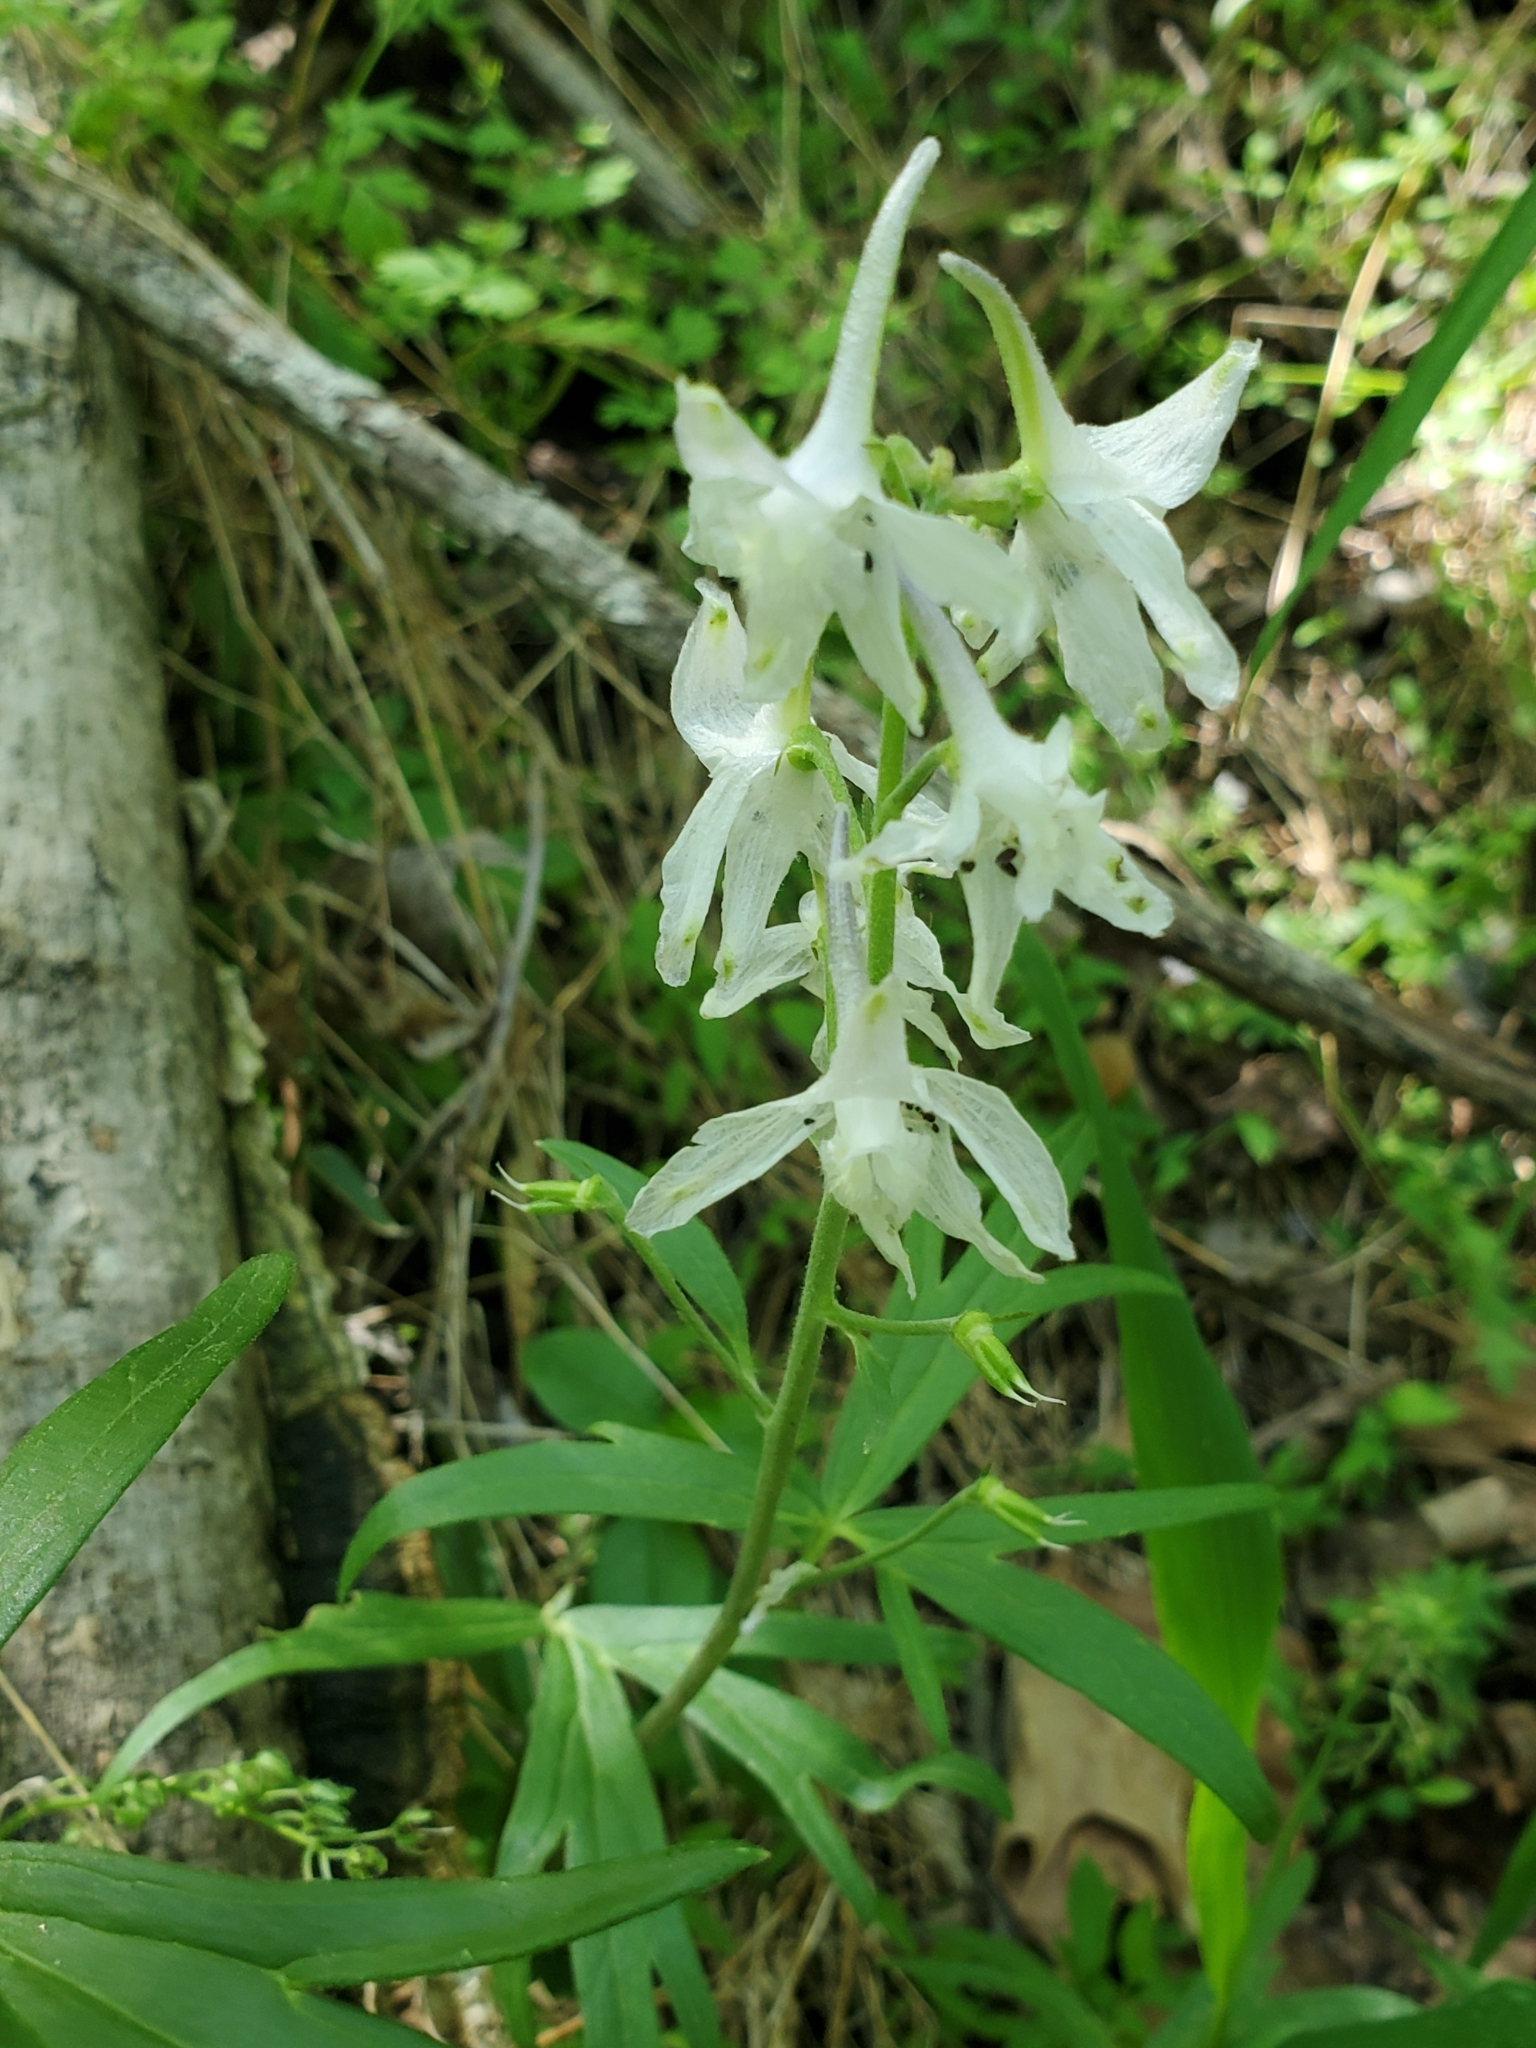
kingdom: Plantae
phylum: Tracheophyta
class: Magnoliopsida
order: Ranunculales
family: Ranunculaceae
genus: Delphinium
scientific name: Delphinium tricorne
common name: Dwarf larkspur
